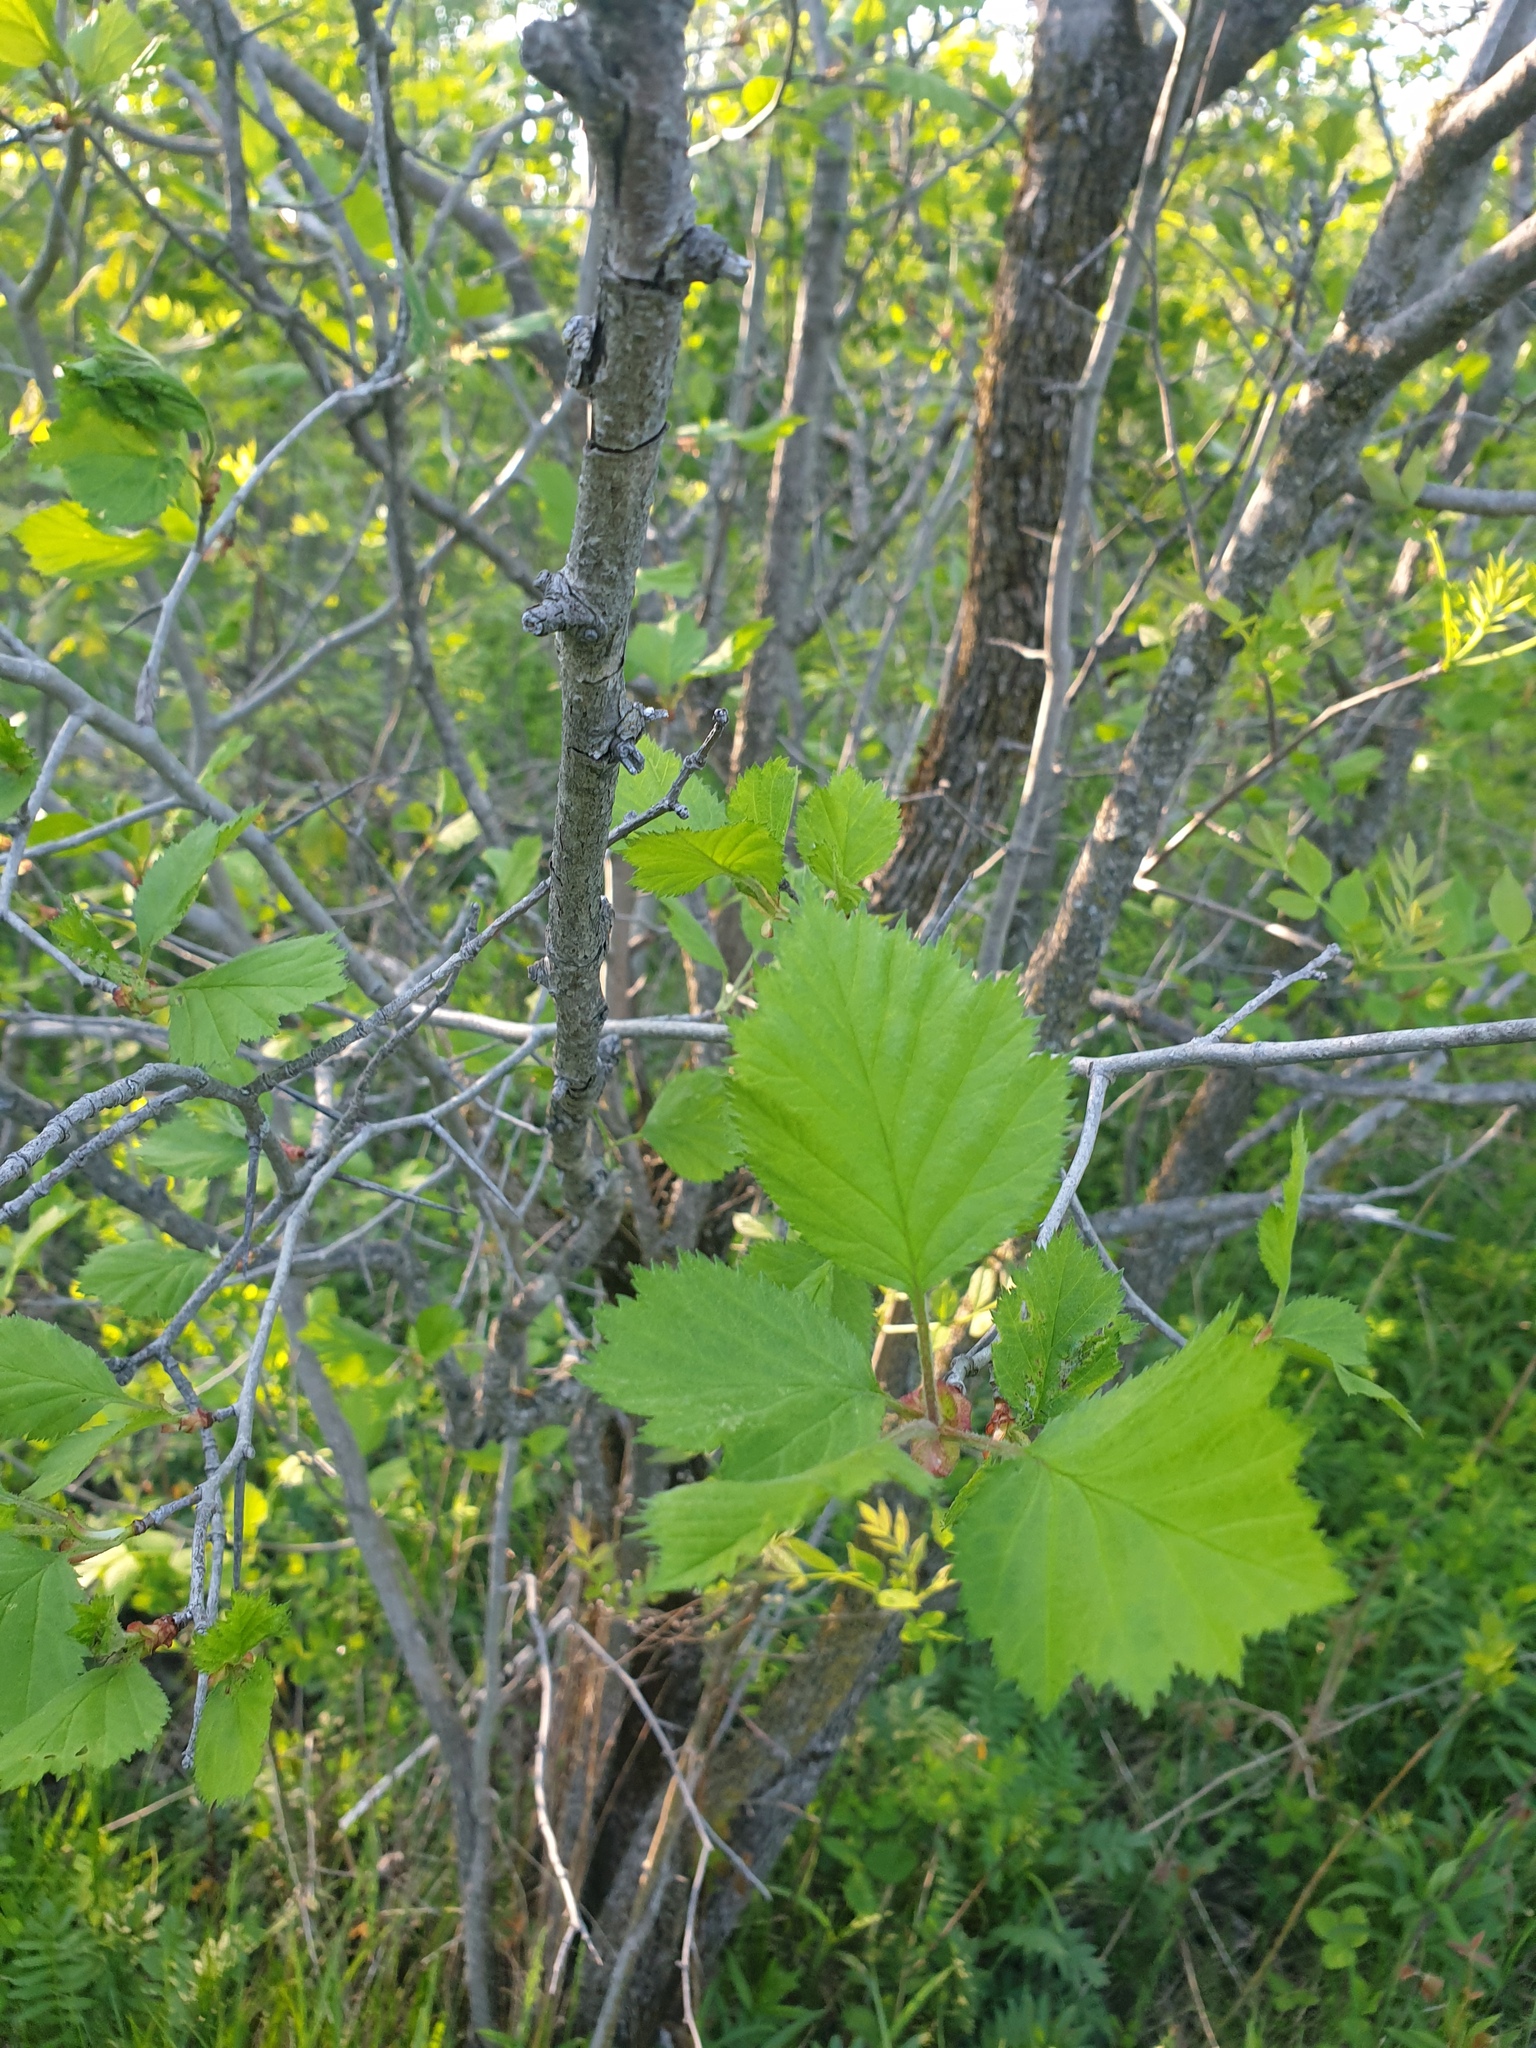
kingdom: Plantae
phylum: Tracheophyta
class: Magnoliopsida
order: Rosales
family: Rosaceae
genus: Crataegus
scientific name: Crataegus submollis
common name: Hairy cockspurthorn
